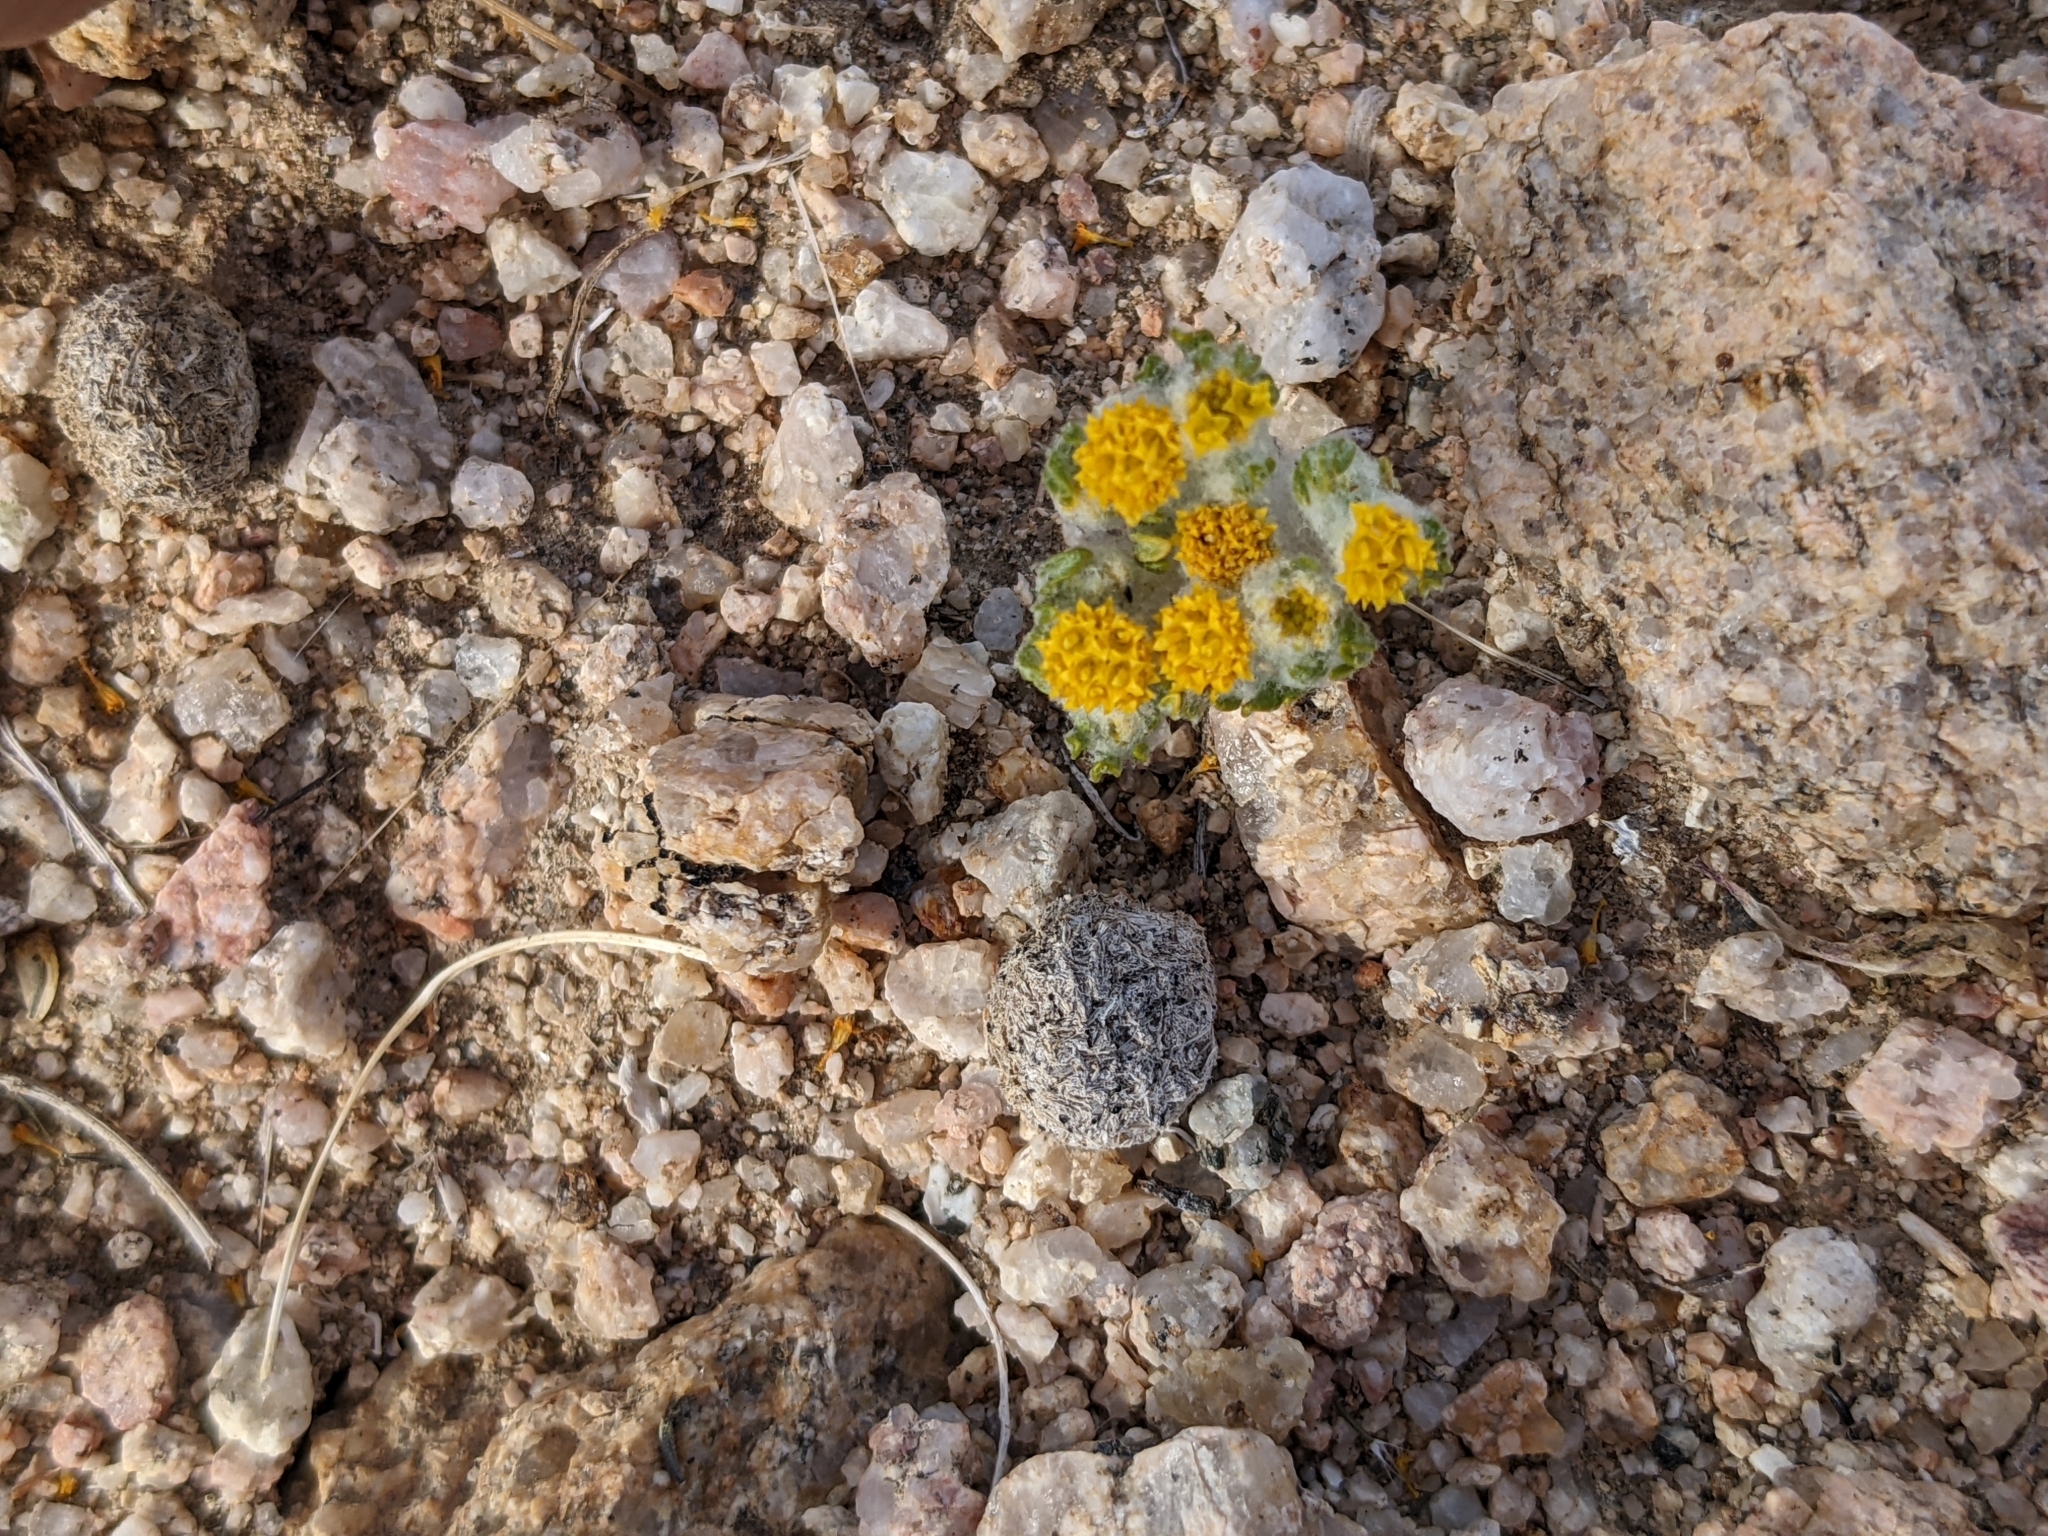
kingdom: Plantae
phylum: Tracheophyta
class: Magnoliopsida
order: Asterales
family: Asteraceae
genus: Eriophyllum
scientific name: Eriophyllum pringlei
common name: Pringle's woolly-sunflower
